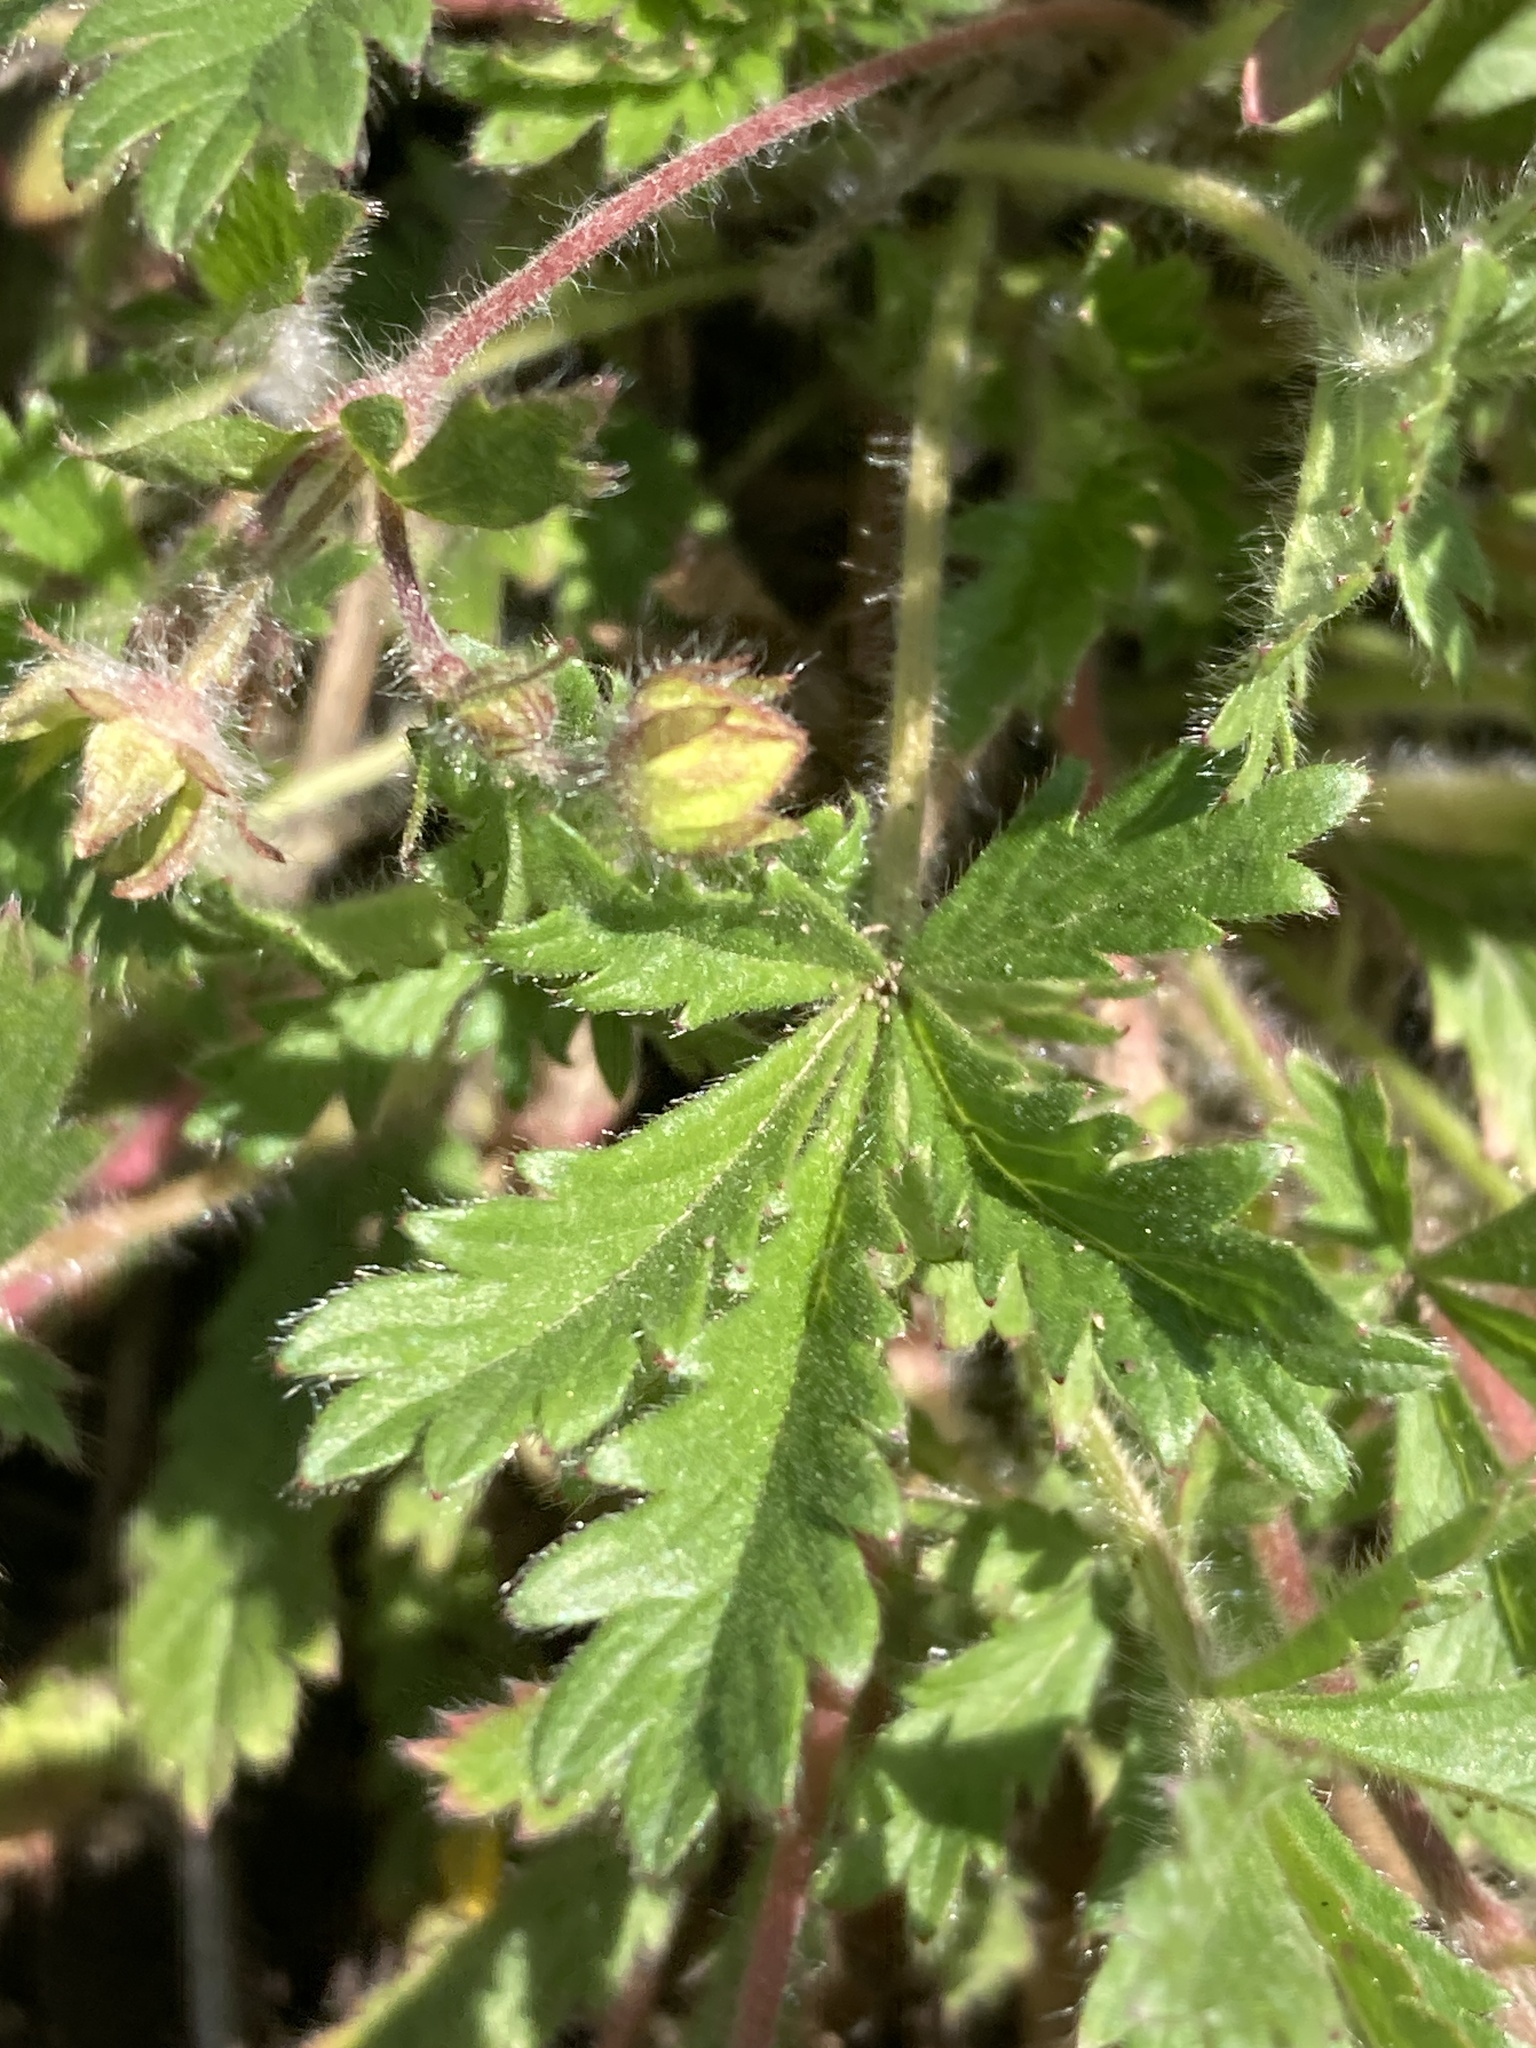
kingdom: Plantae
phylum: Tracheophyta
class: Magnoliopsida
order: Rosales
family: Rosaceae
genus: Potentilla
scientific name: Potentilla humifusa
